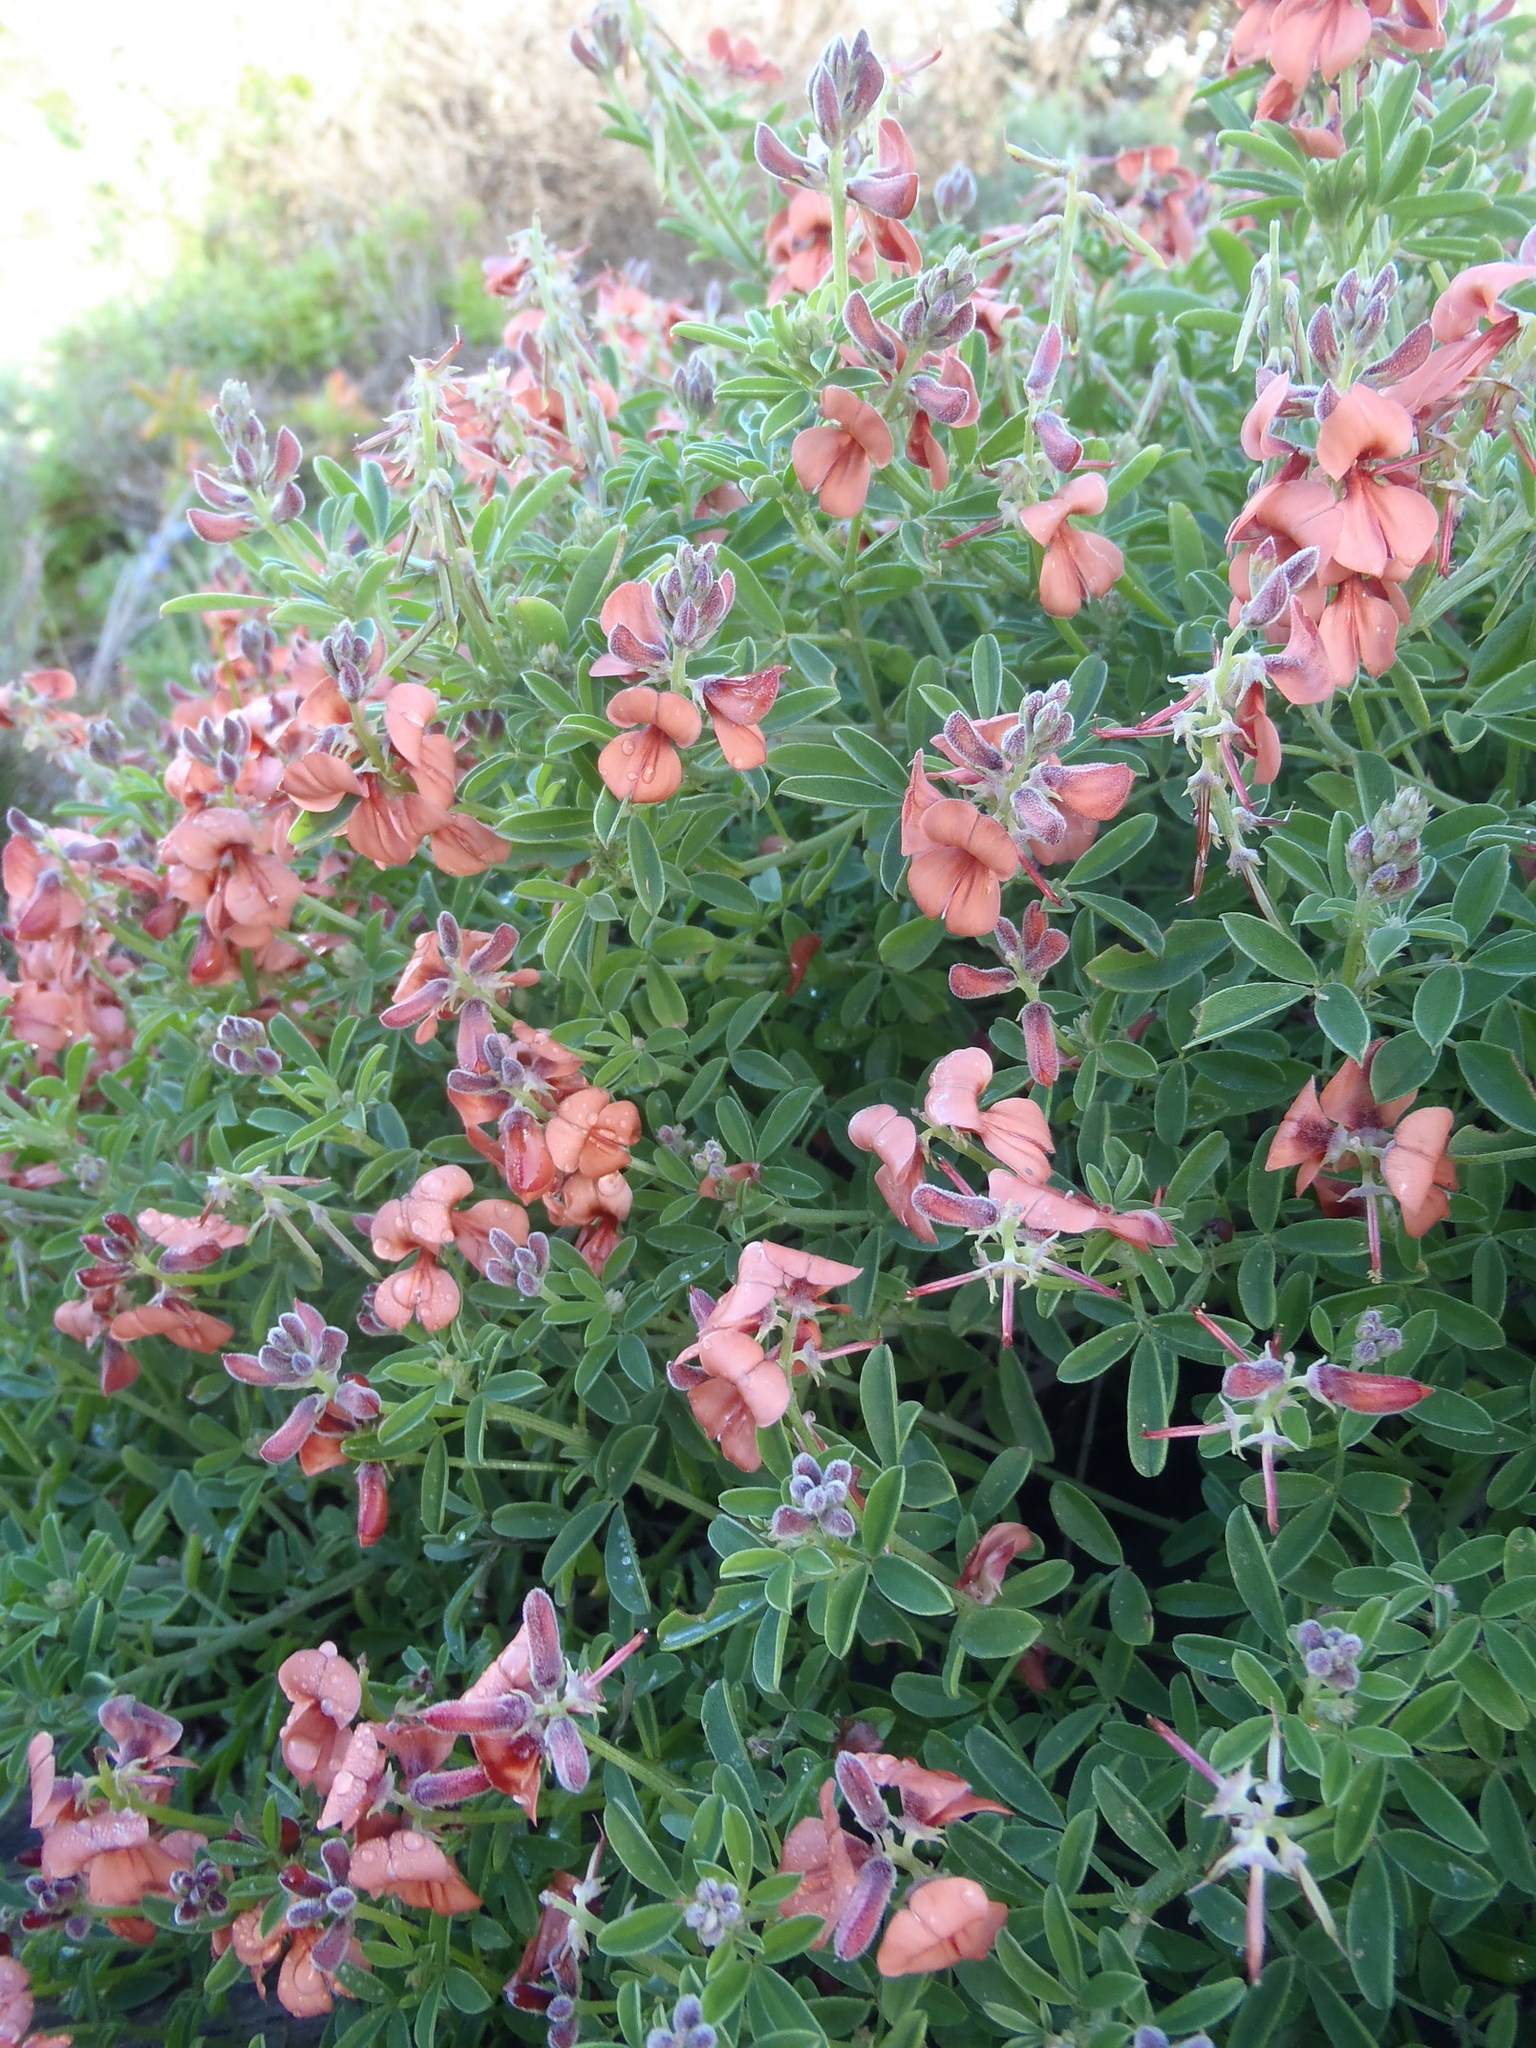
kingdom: Plantae
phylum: Tracheophyta
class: Magnoliopsida
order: Fabales
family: Fabaceae
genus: Indigofera
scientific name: Indigofera porrecta
